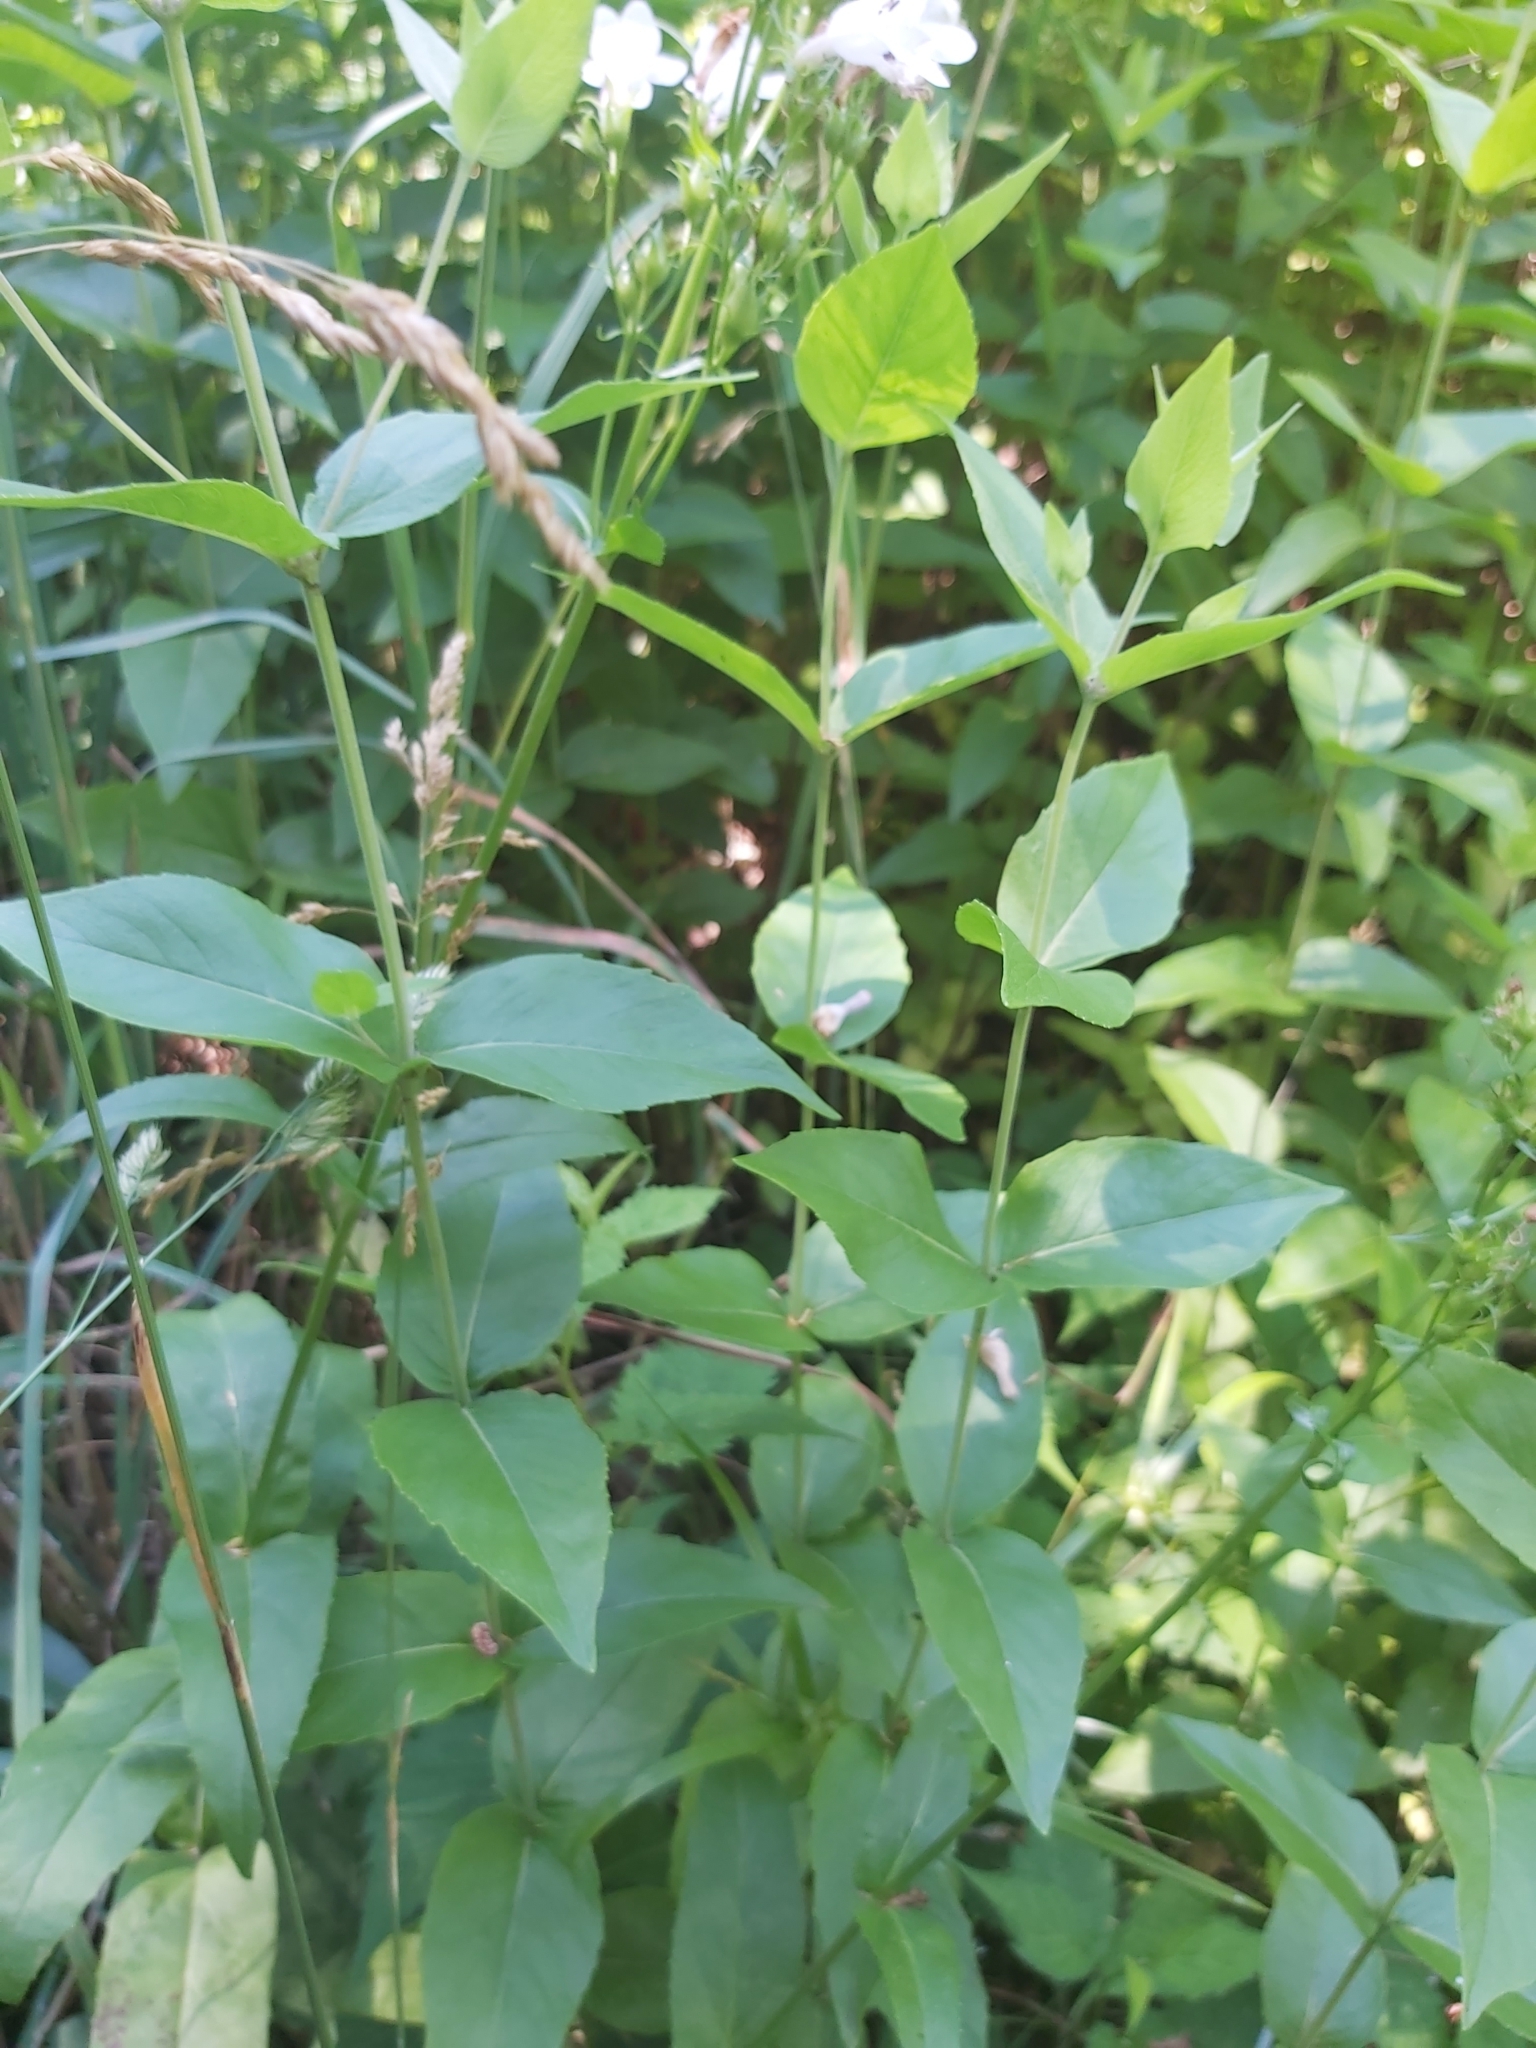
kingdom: Plantae
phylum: Tracheophyta
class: Magnoliopsida
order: Lamiales
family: Plantaginaceae
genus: Penstemon
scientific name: Penstemon digitalis
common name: Foxglove beardtongue
